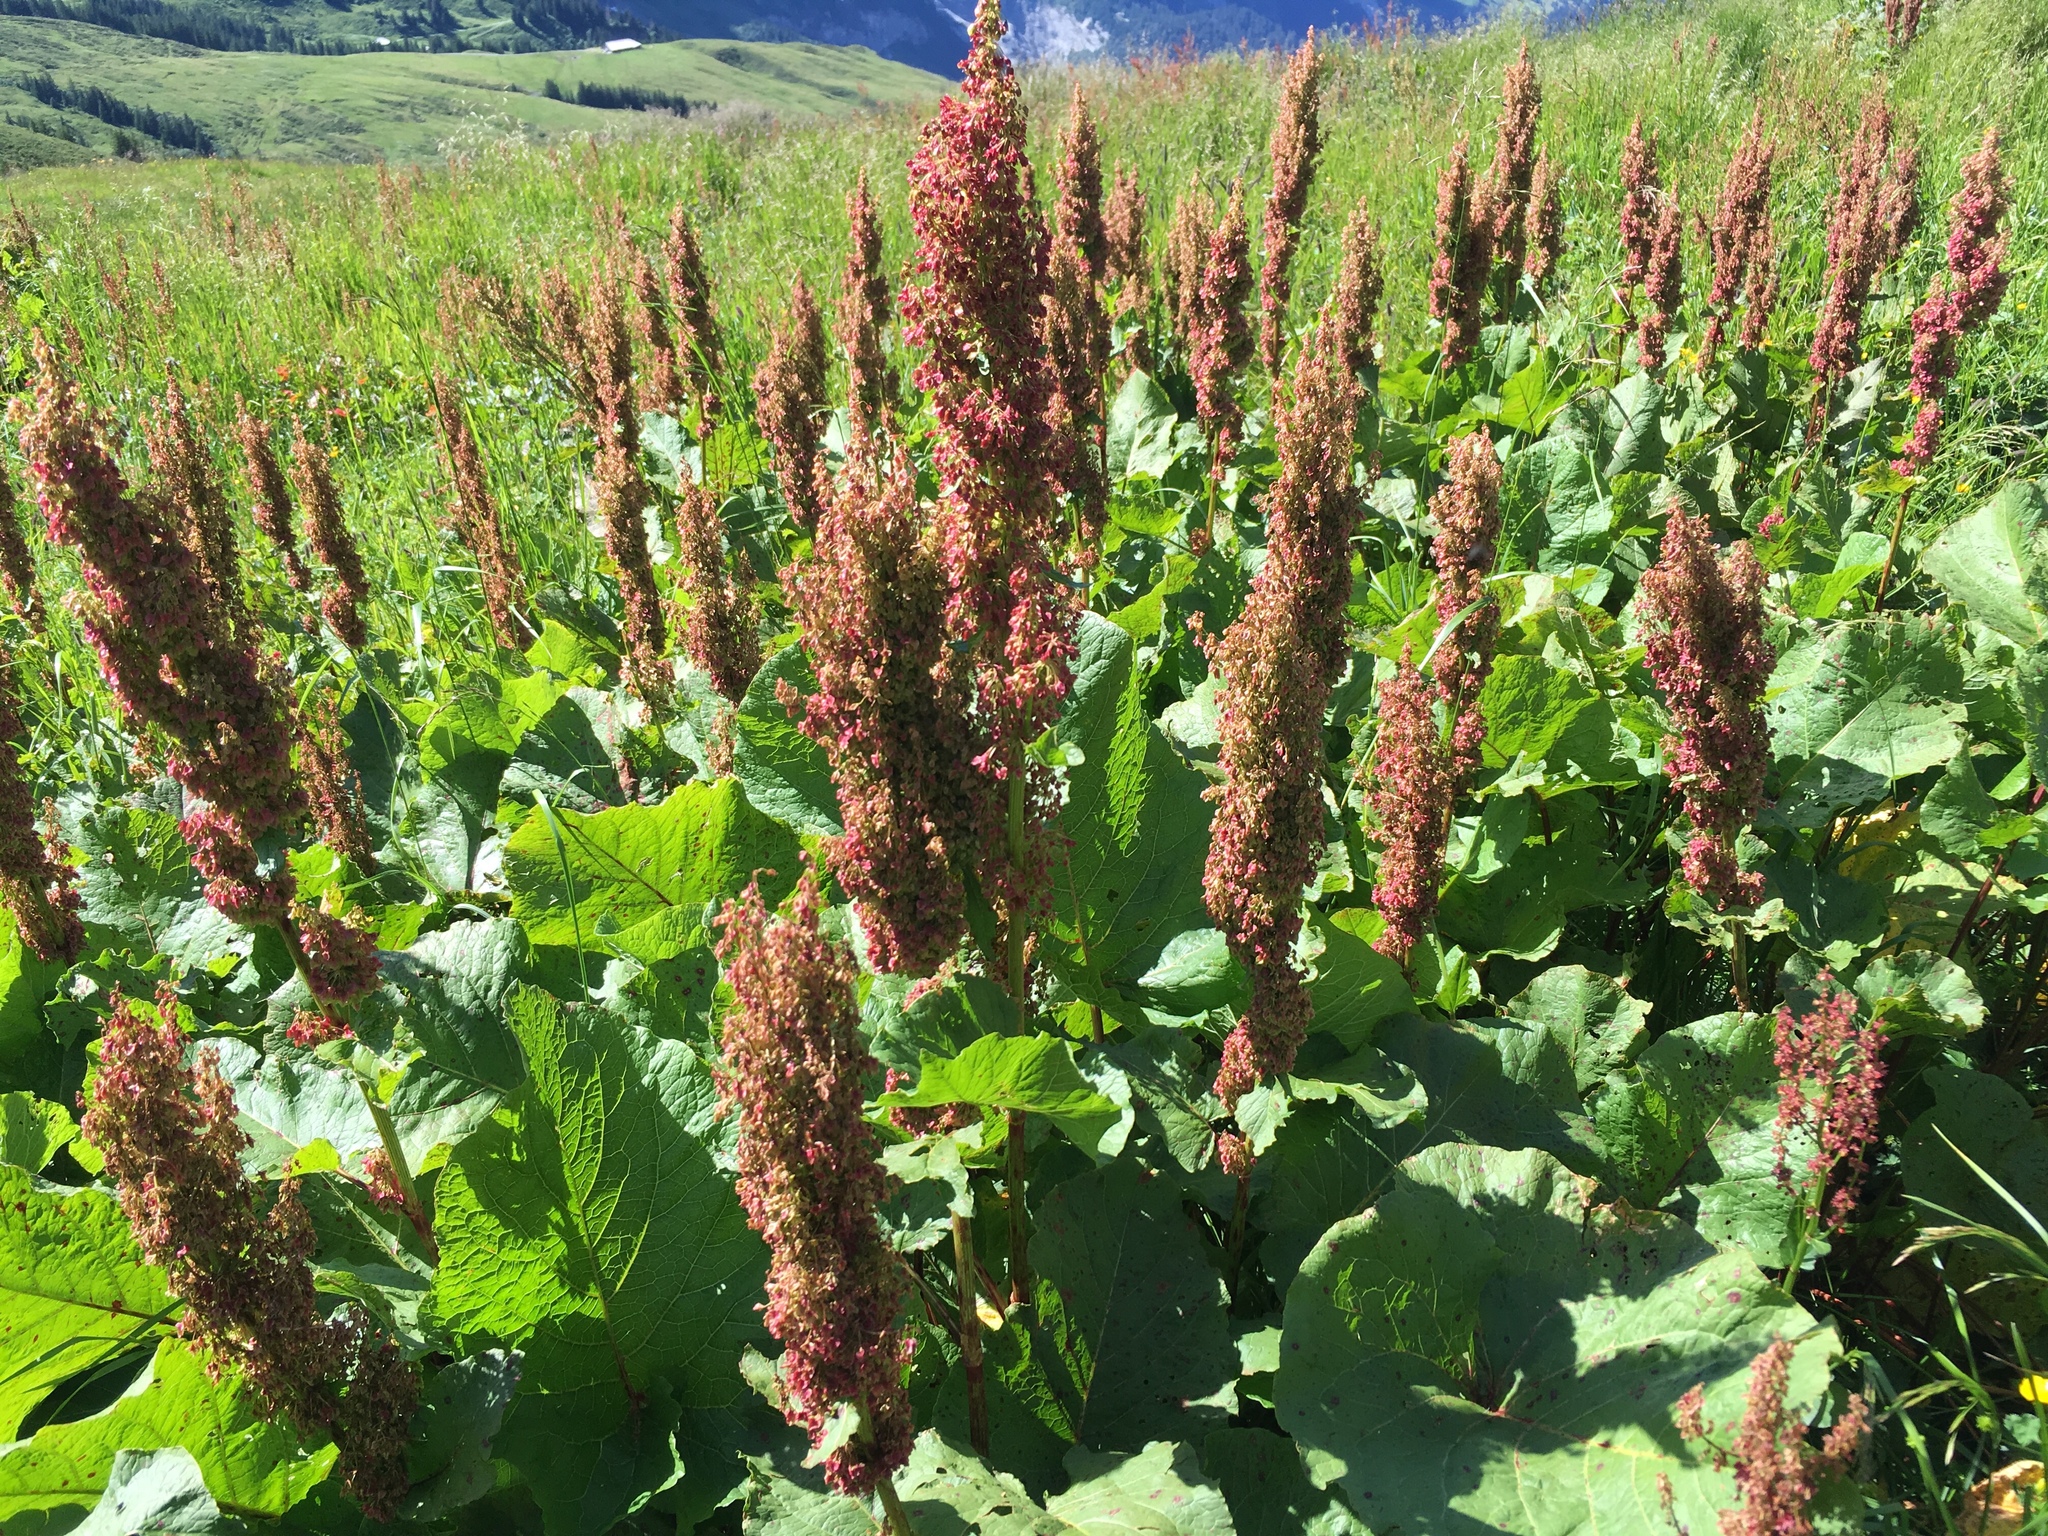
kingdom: Plantae
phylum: Tracheophyta
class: Magnoliopsida
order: Caryophyllales
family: Polygonaceae
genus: Rumex
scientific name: Rumex alpinus
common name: Alpine dock
